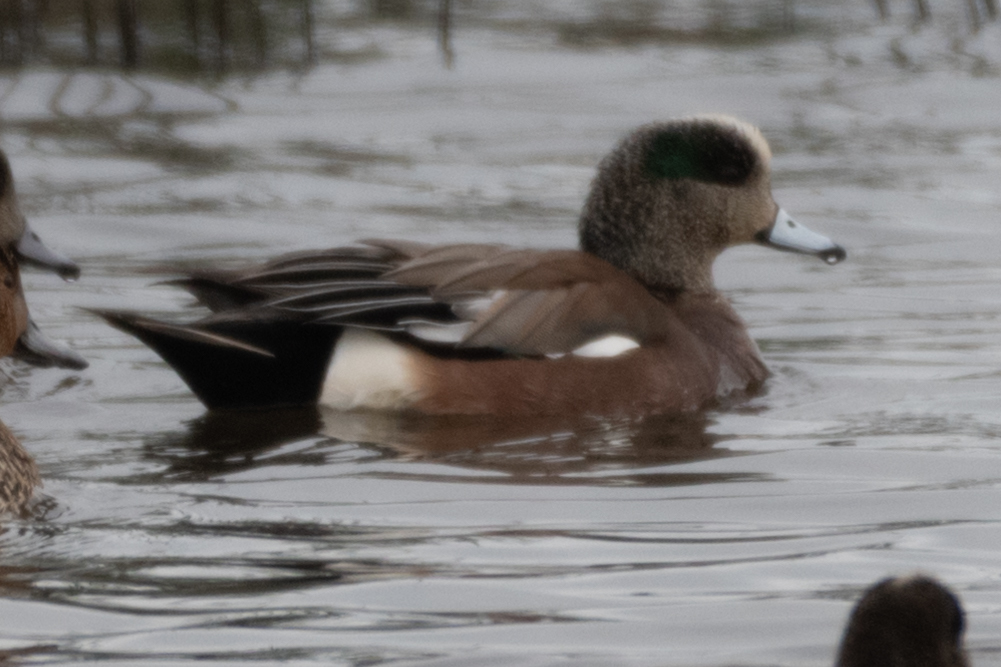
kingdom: Animalia
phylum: Chordata
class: Aves
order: Anseriformes
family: Anatidae
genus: Mareca
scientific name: Mareca americana
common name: American wigeon
